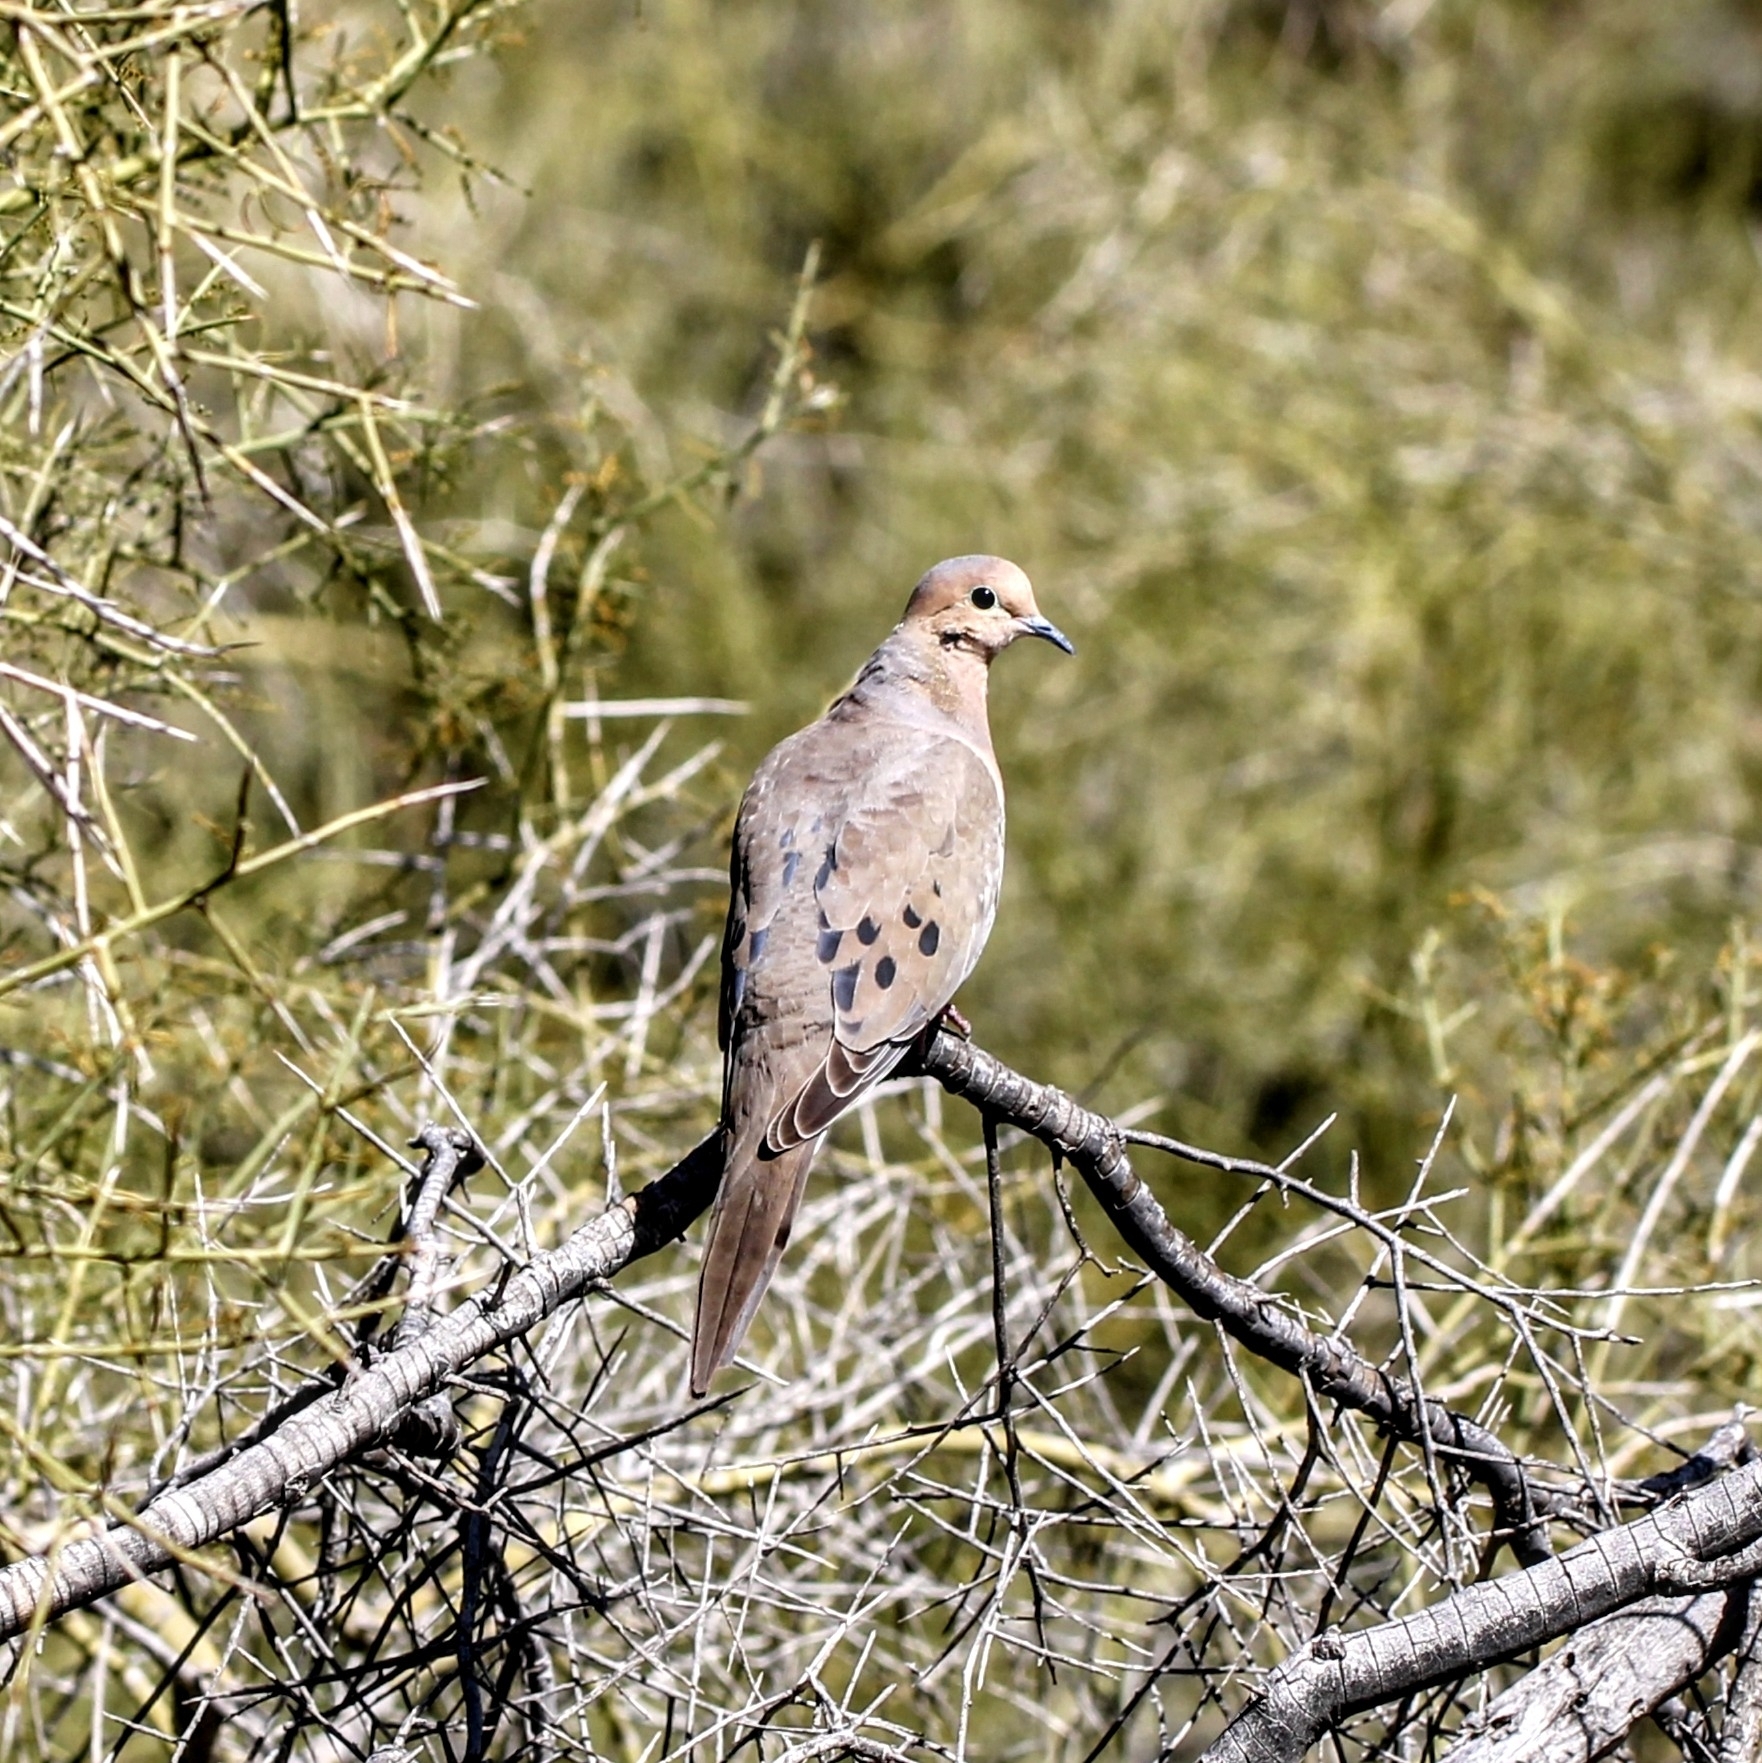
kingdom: Animalia
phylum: Chordata
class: Aves
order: Columbiformes
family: Columbidae
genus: Zenaida
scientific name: Zenaida macroura
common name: Mourning dove
